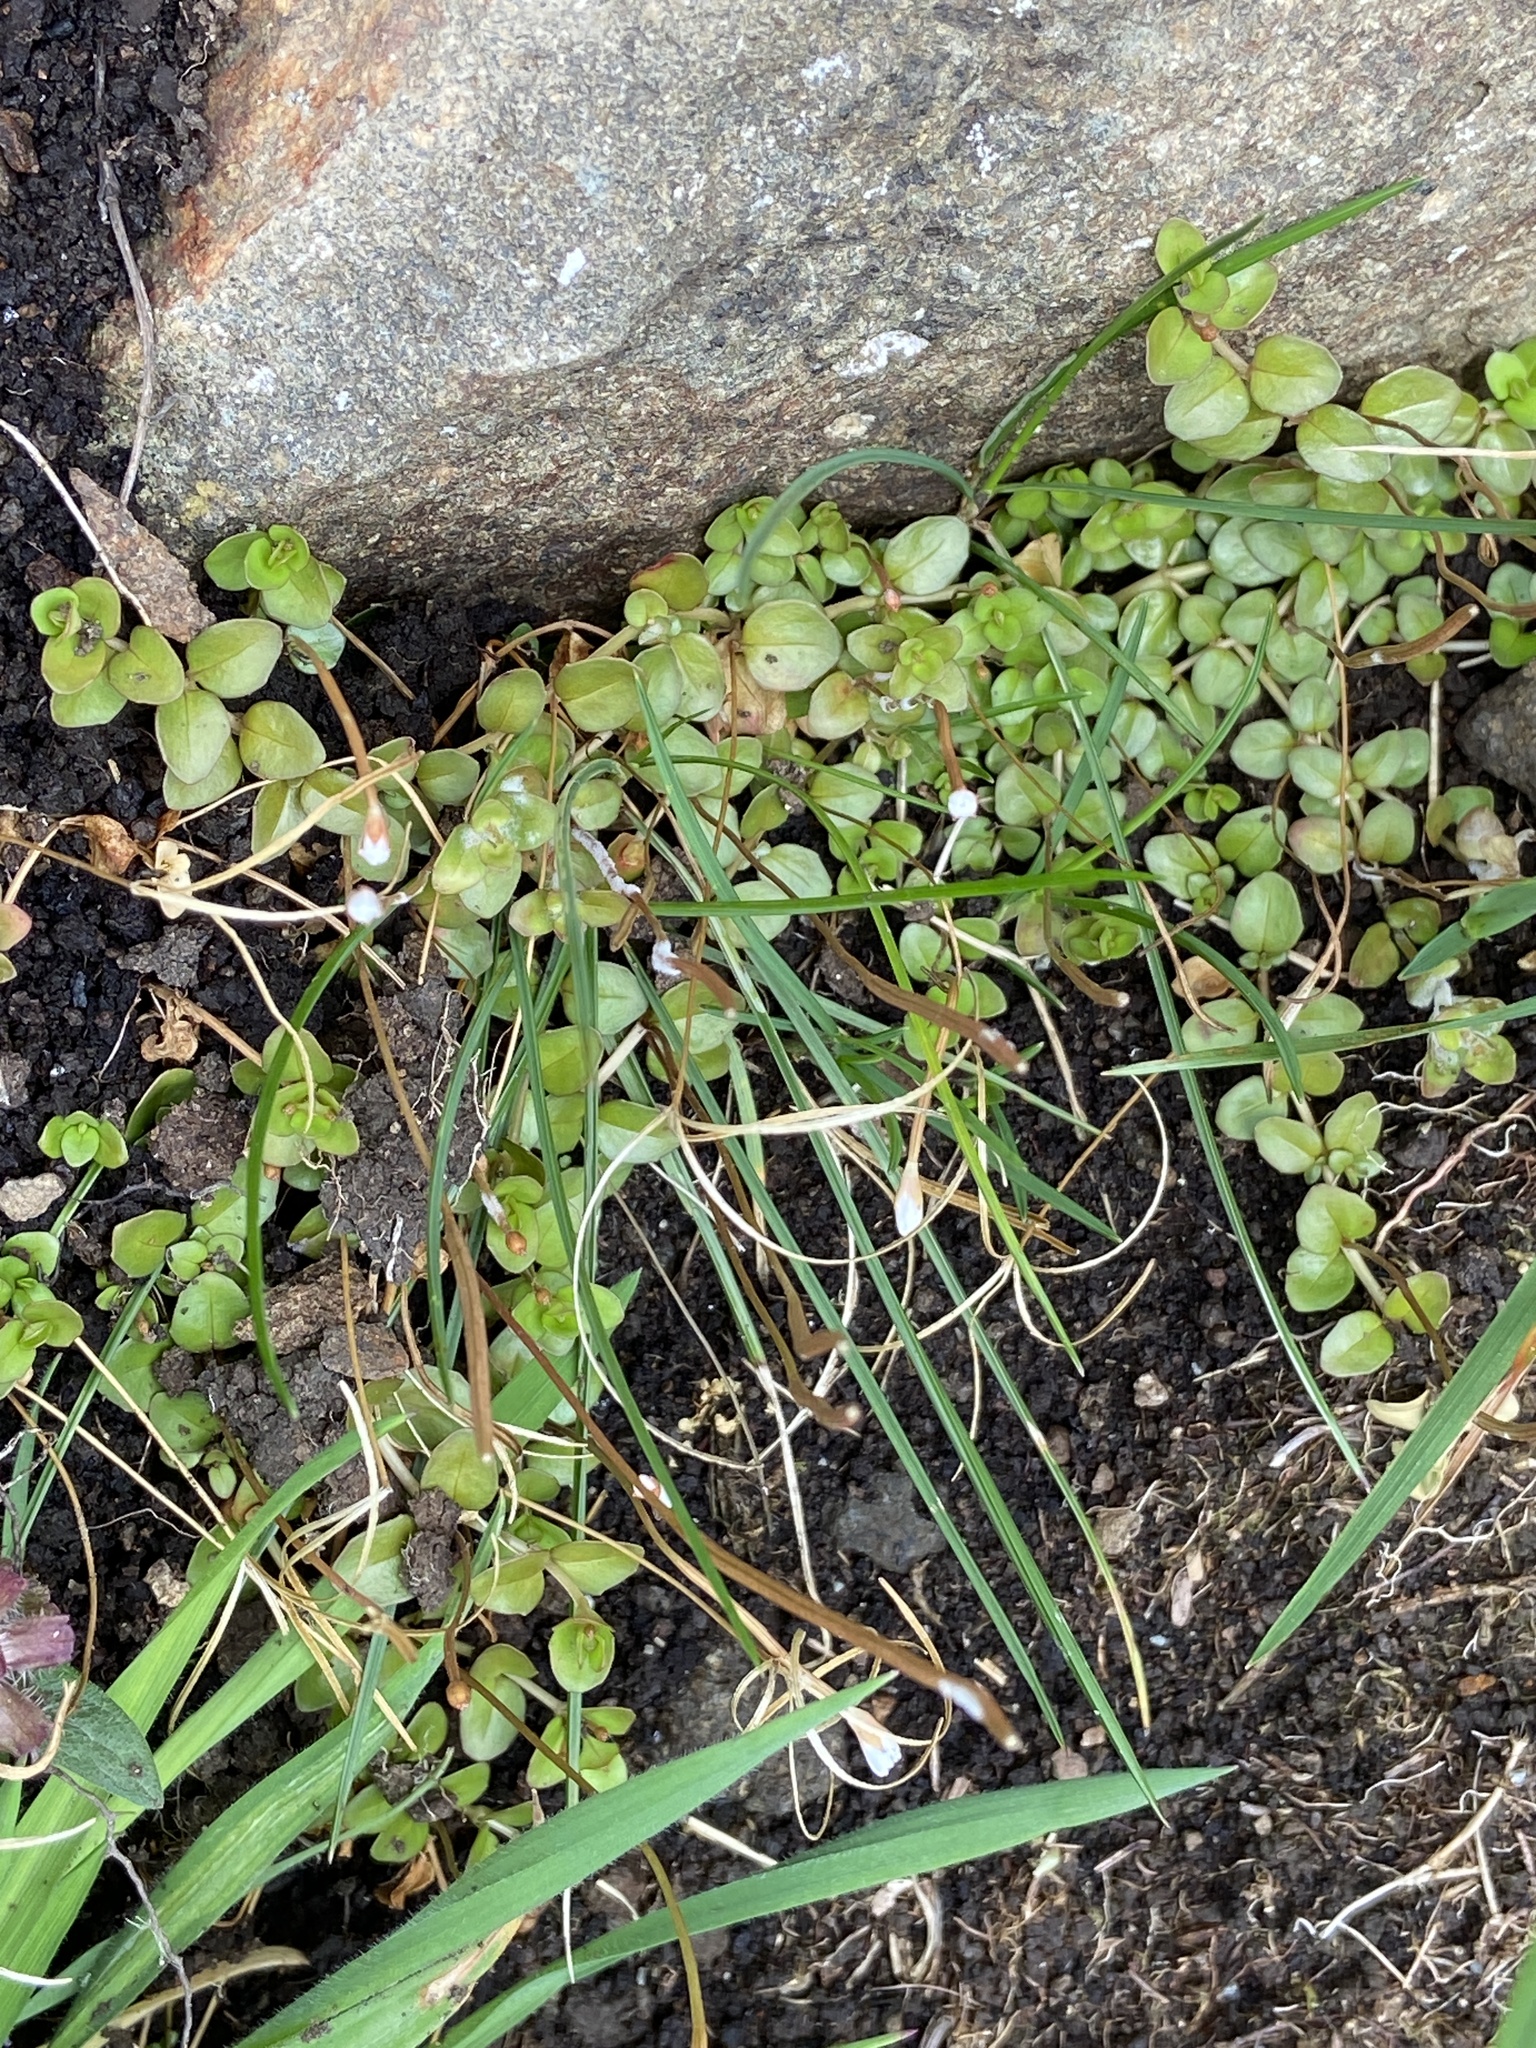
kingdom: Plantae
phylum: Tracheophyta
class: Magnoliopsida
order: Myrtales
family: Onagraceae
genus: Epilobium
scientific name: Epilobium brunnescens
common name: New zealand willowherb
